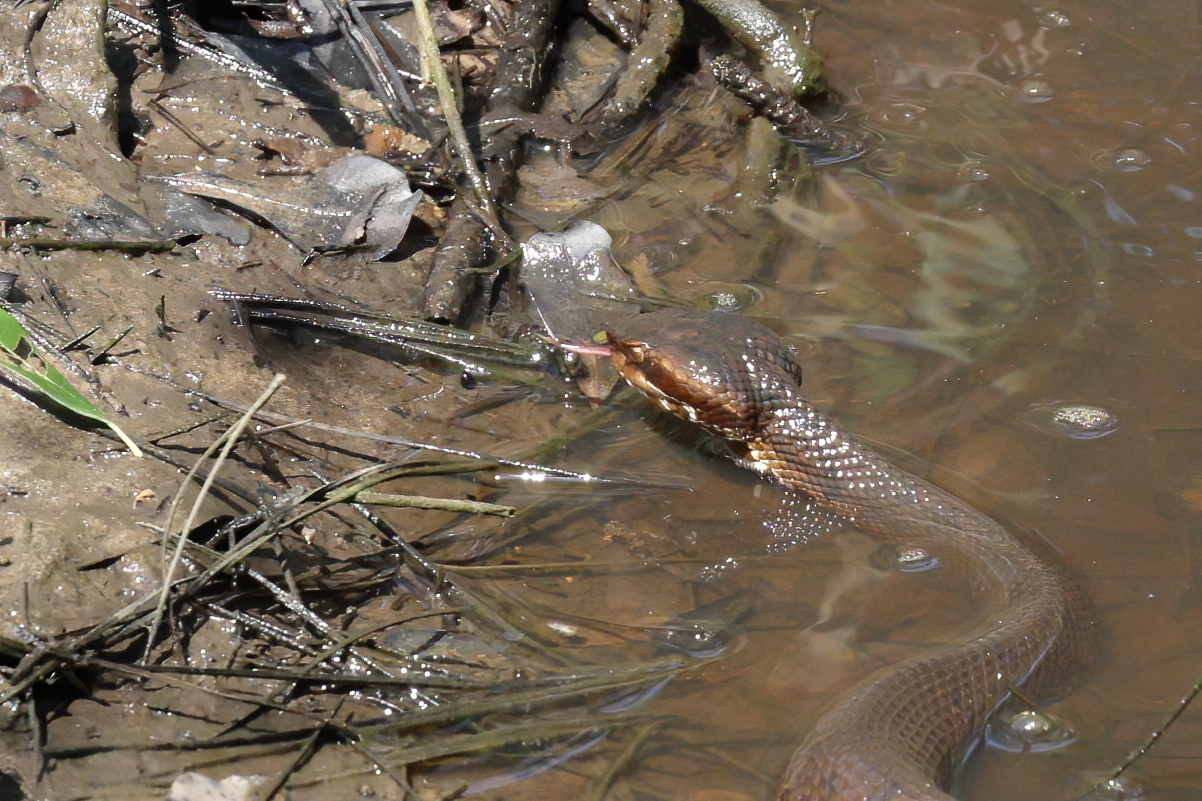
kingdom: Animalia
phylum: Chordata
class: Squamata
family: Viperidae
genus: Agkistrodon
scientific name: Agkistrodon piscivorus
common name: Cottonmouth
